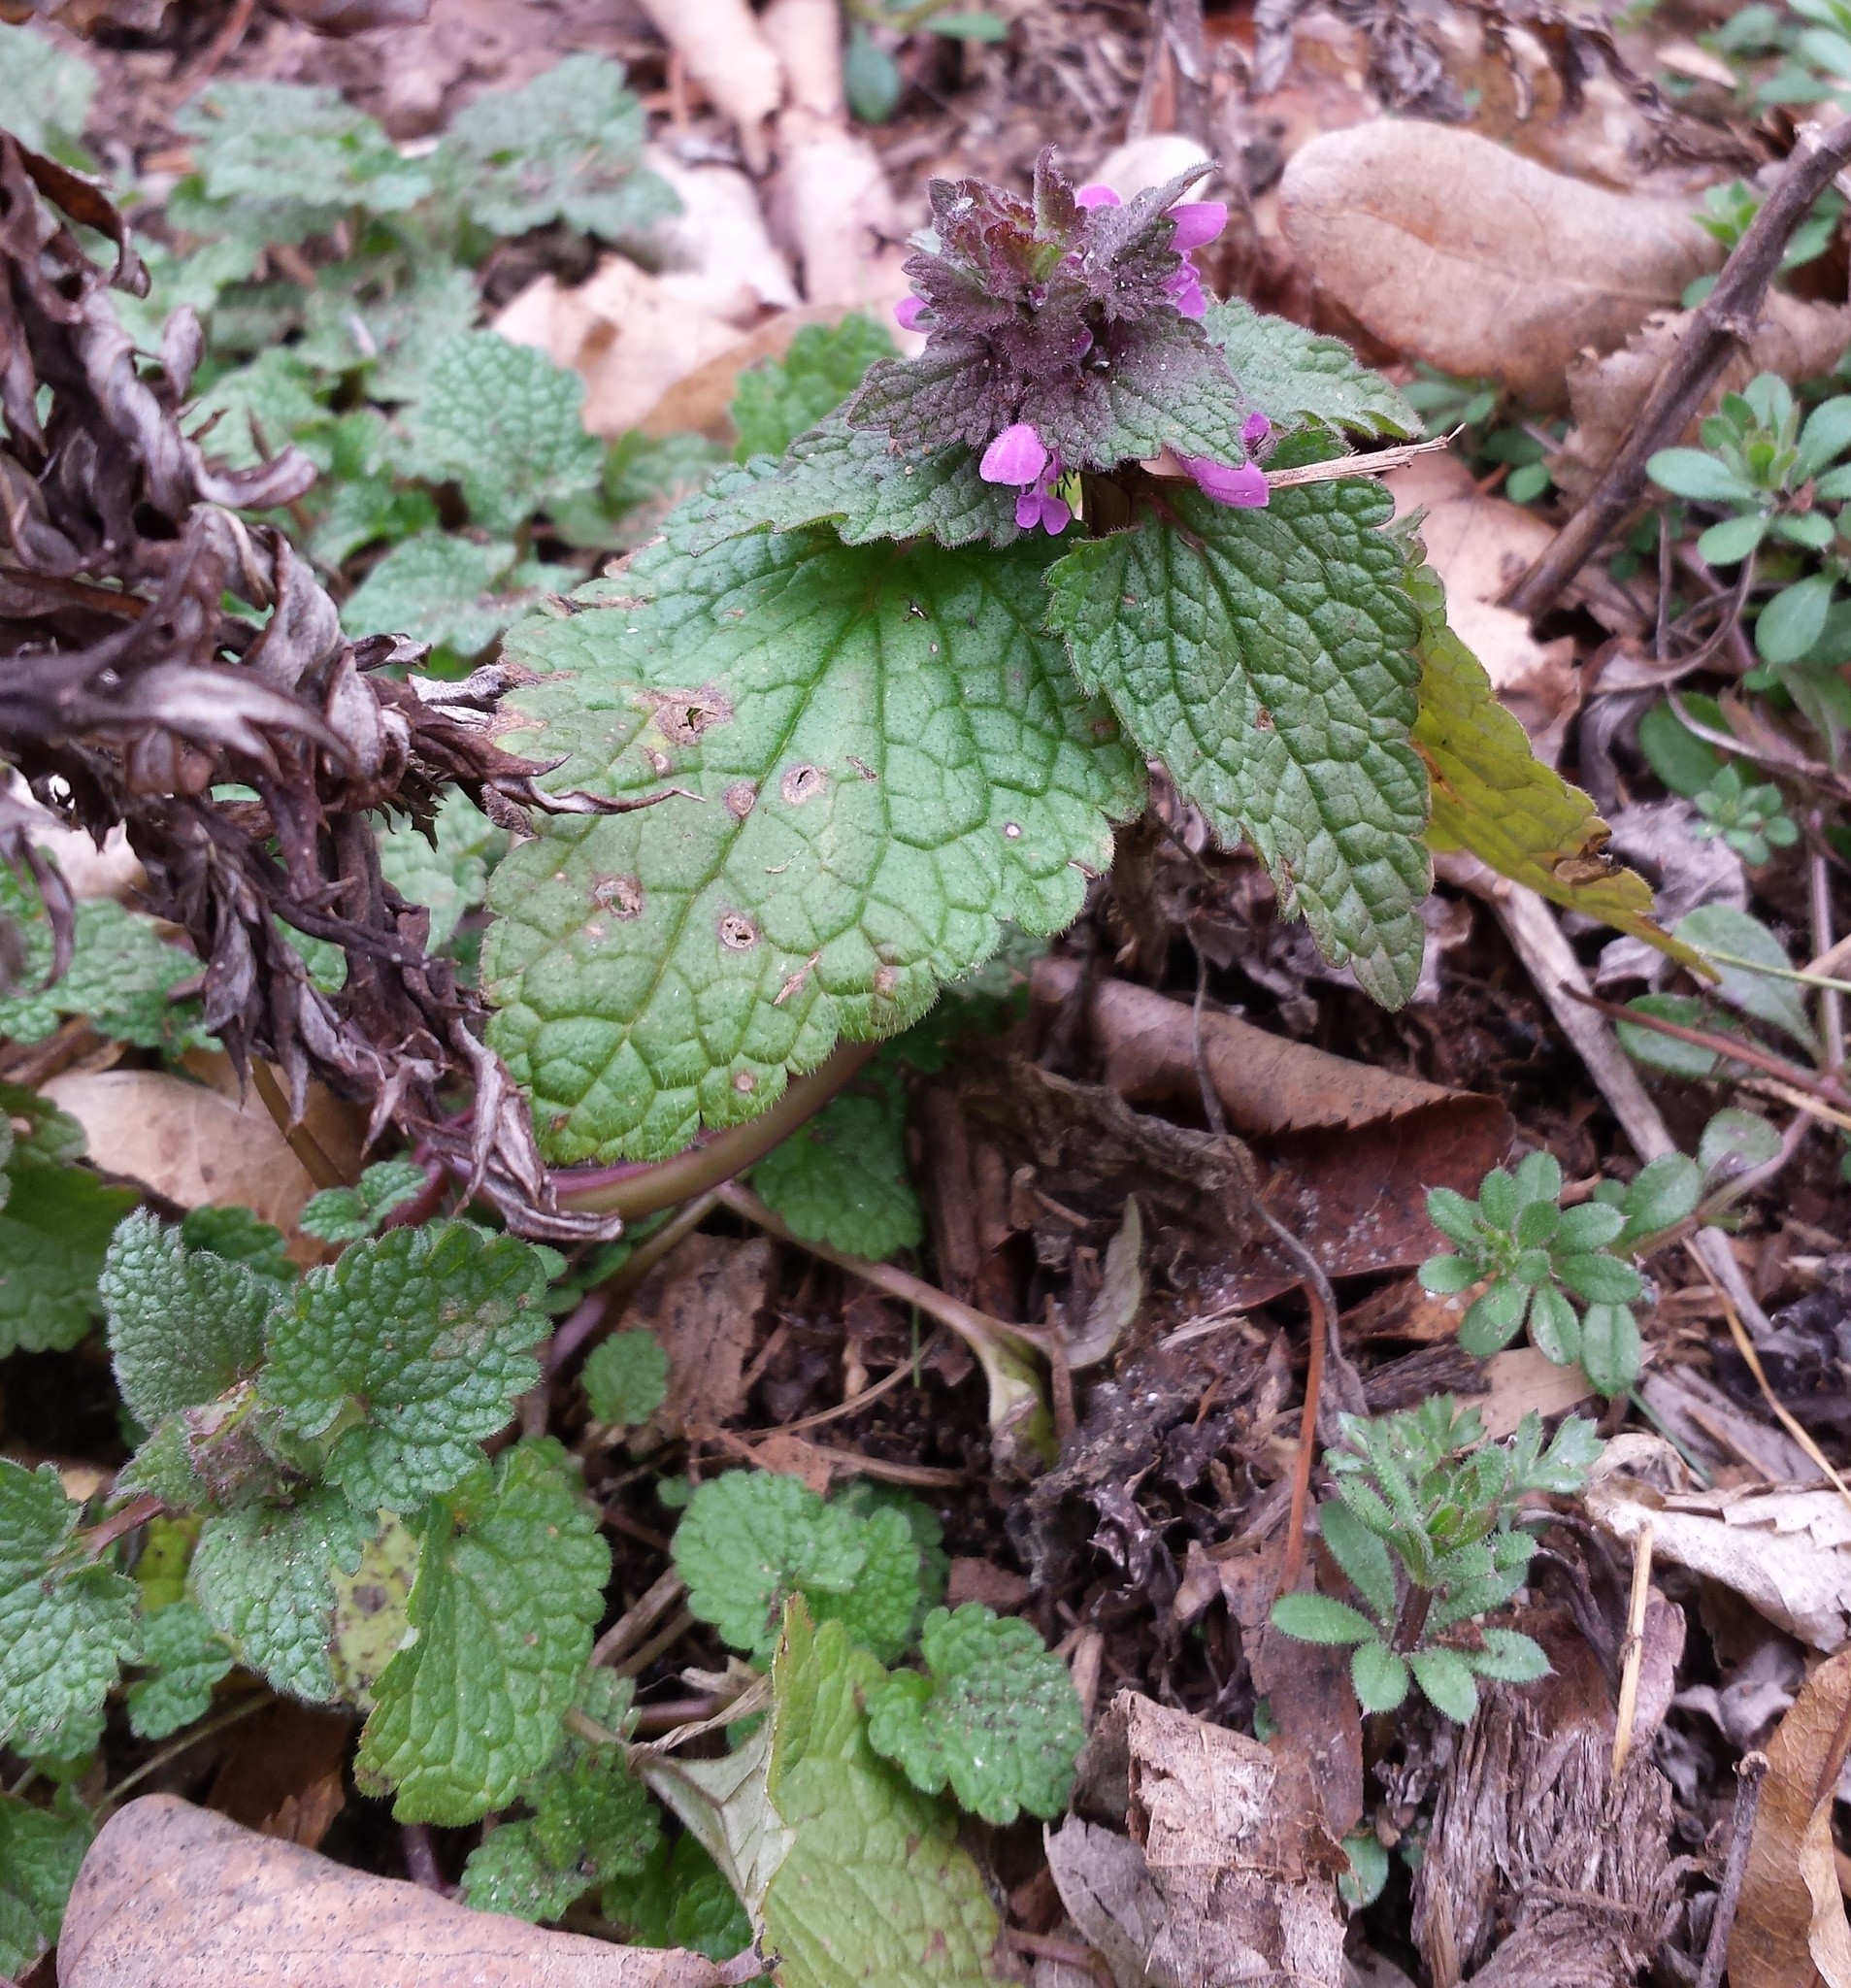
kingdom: Plantae
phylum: Tracheophyta
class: Magnoliopsida
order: Lamiales
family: Lamiaceae
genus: Lamium
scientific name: Lamium purpureum
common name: Red dead-nettle
